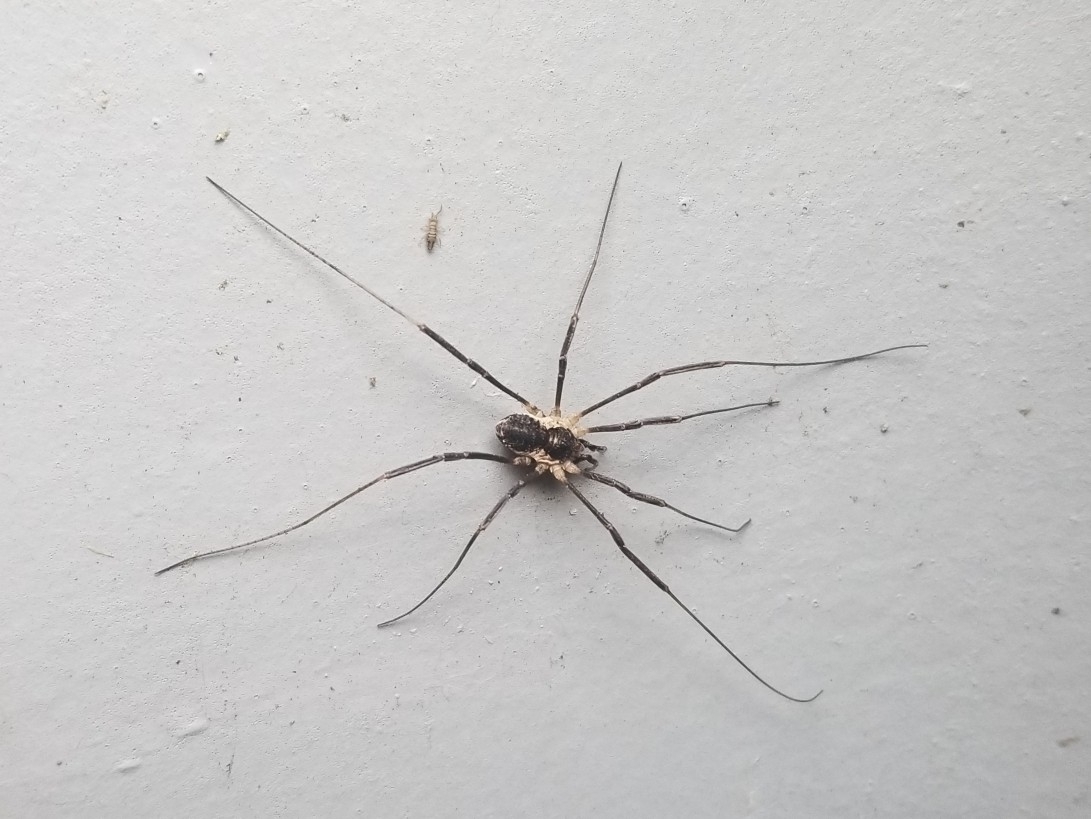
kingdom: Animalia
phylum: Arthropoda
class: Arachnida
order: Opiliones
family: Phalangiidae
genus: Mitopus
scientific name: Mitopus morio
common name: Saddleback harvestman
